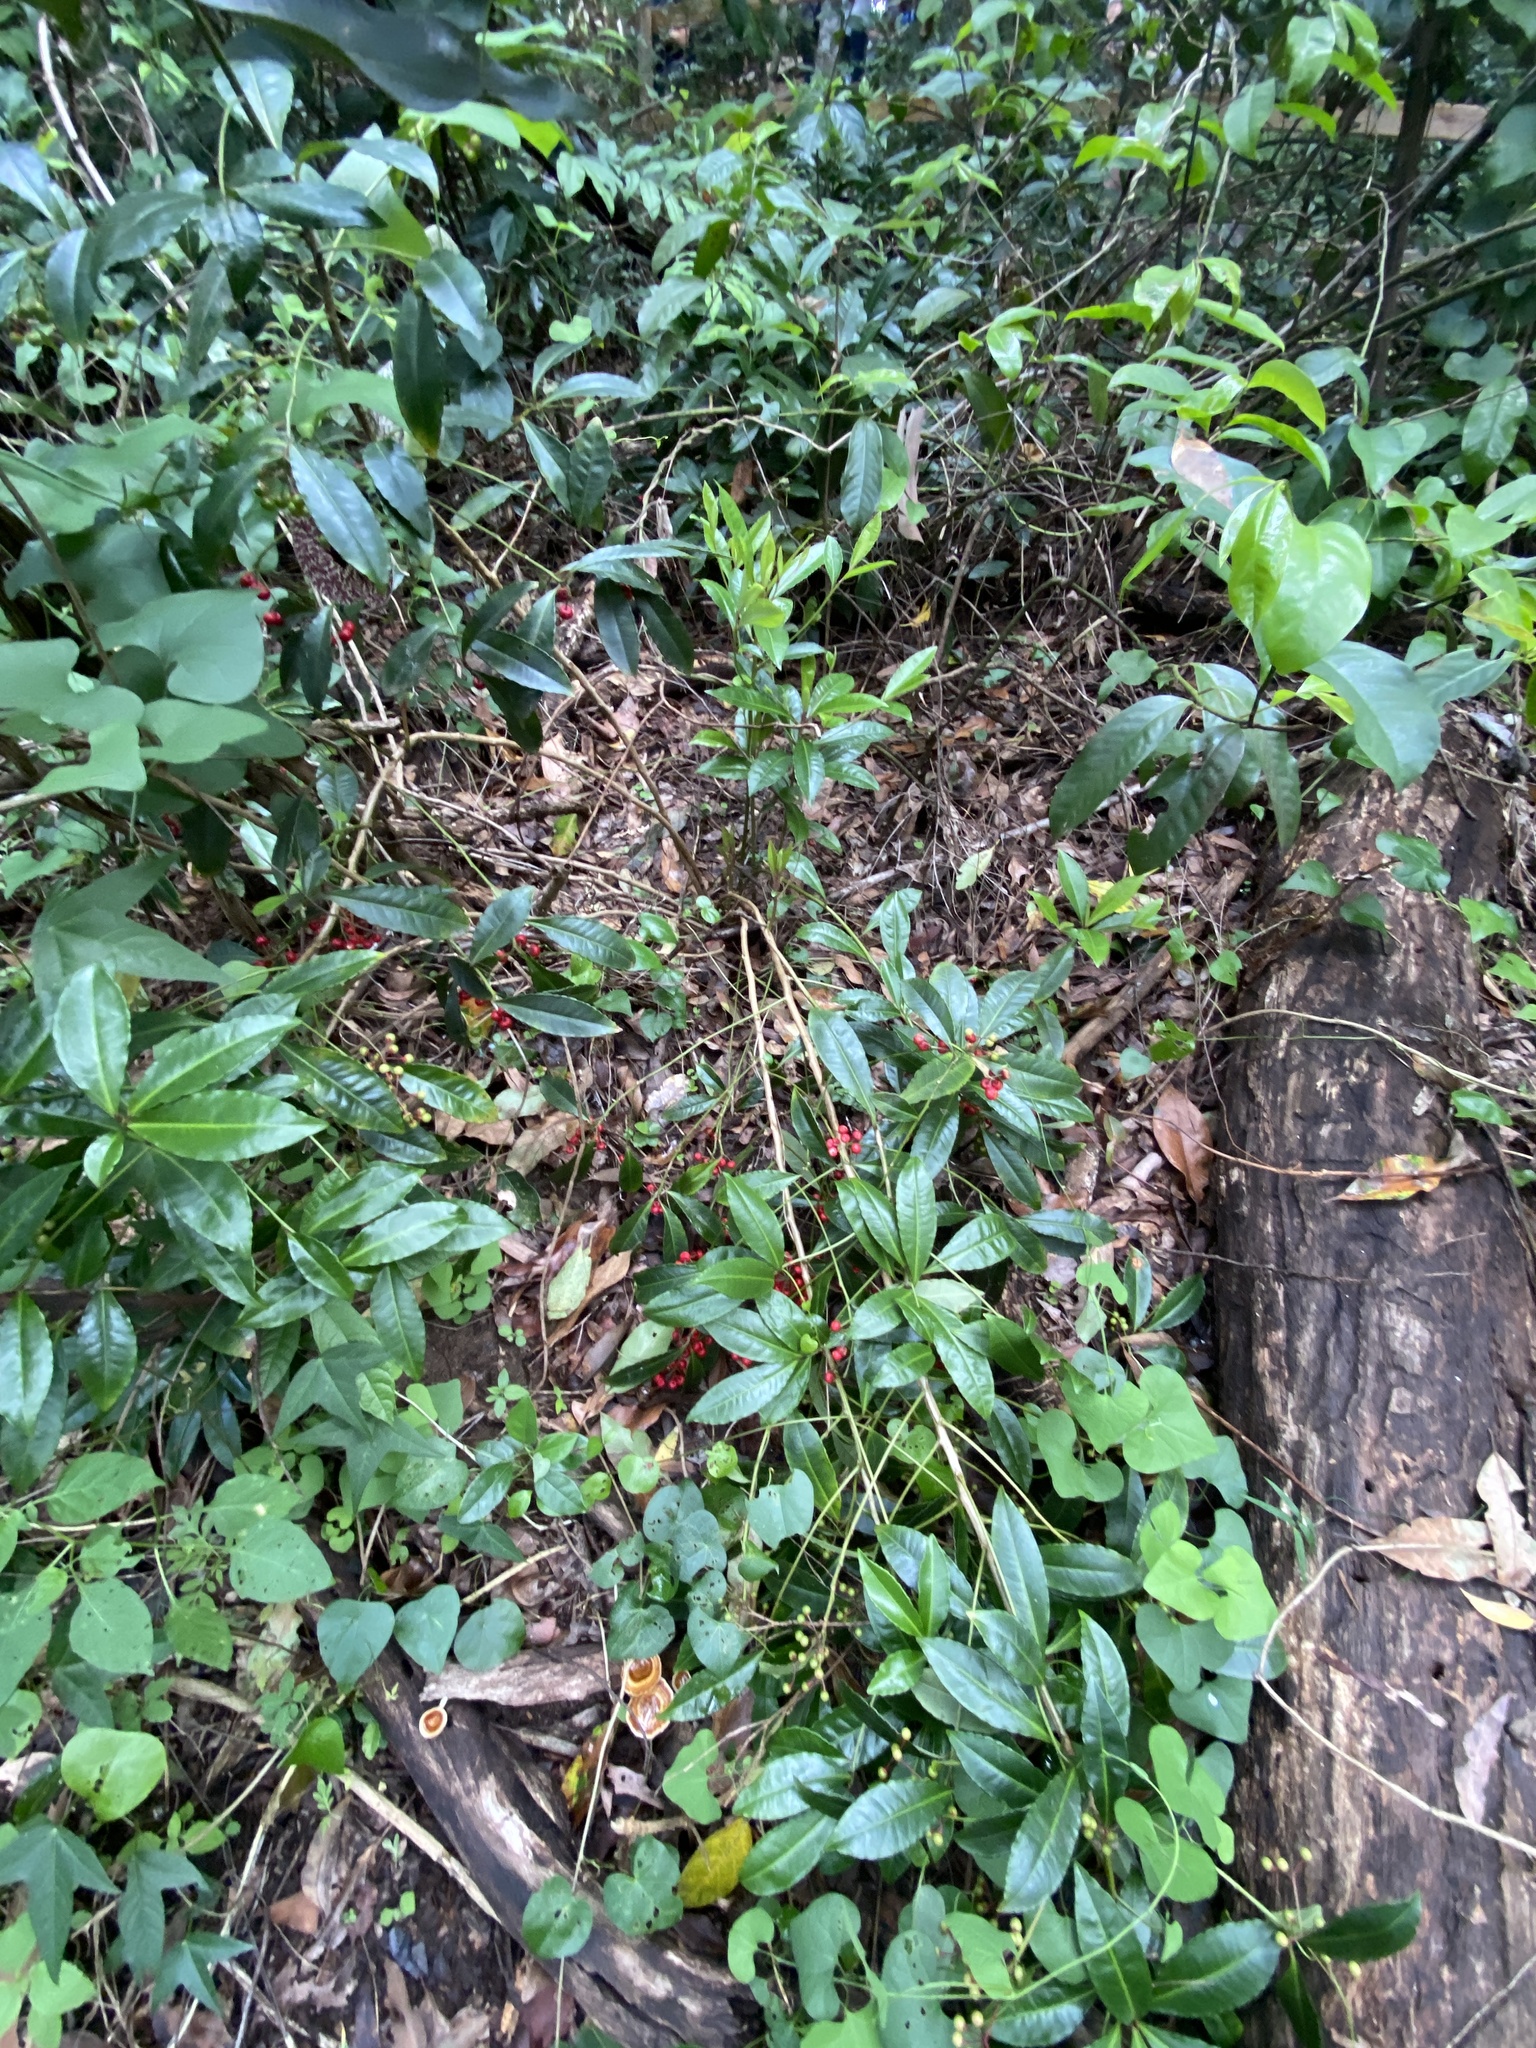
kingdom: Plantae
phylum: Tracheophyta
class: Magnoliopsida
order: Ericales
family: Primulaceae
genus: Ardisia
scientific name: Ardisia crenata
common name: Hen's eyes
